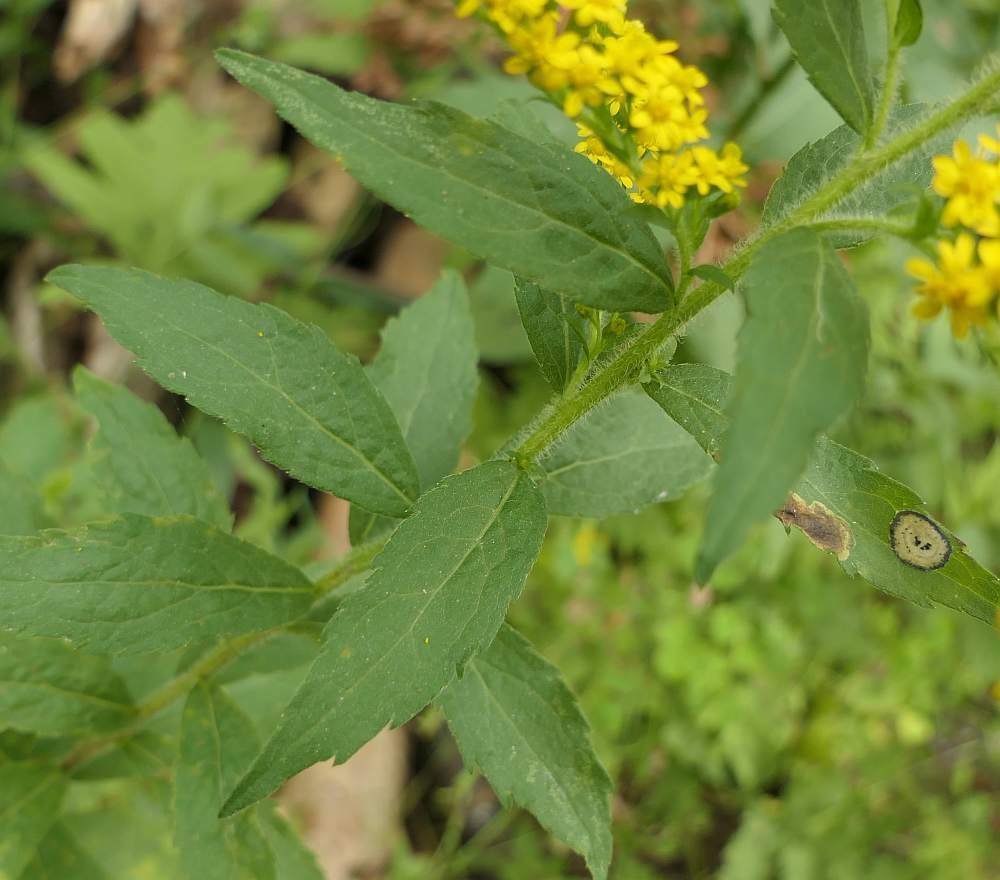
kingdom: Plantae
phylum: Tracheophyta
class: Magnoliopsida
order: Asterales
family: Asteraceae
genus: Solidago
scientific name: Solidago rugosa
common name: Rough-stemmed goldenrod
